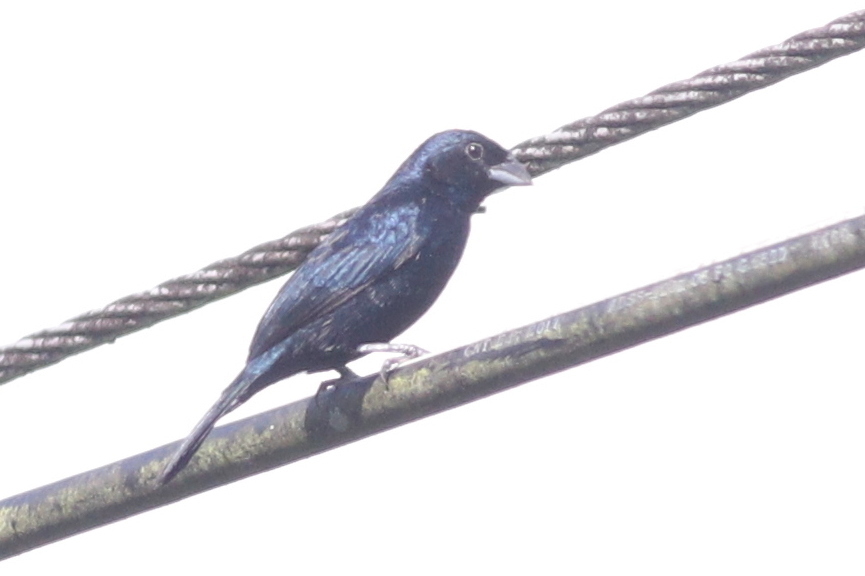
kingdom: Animalia
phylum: Chordata
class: Aves
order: Passeriformes
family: Thraupidae
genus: Volatinia
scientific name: Volatinia jacarina
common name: Blue-black grassquit
